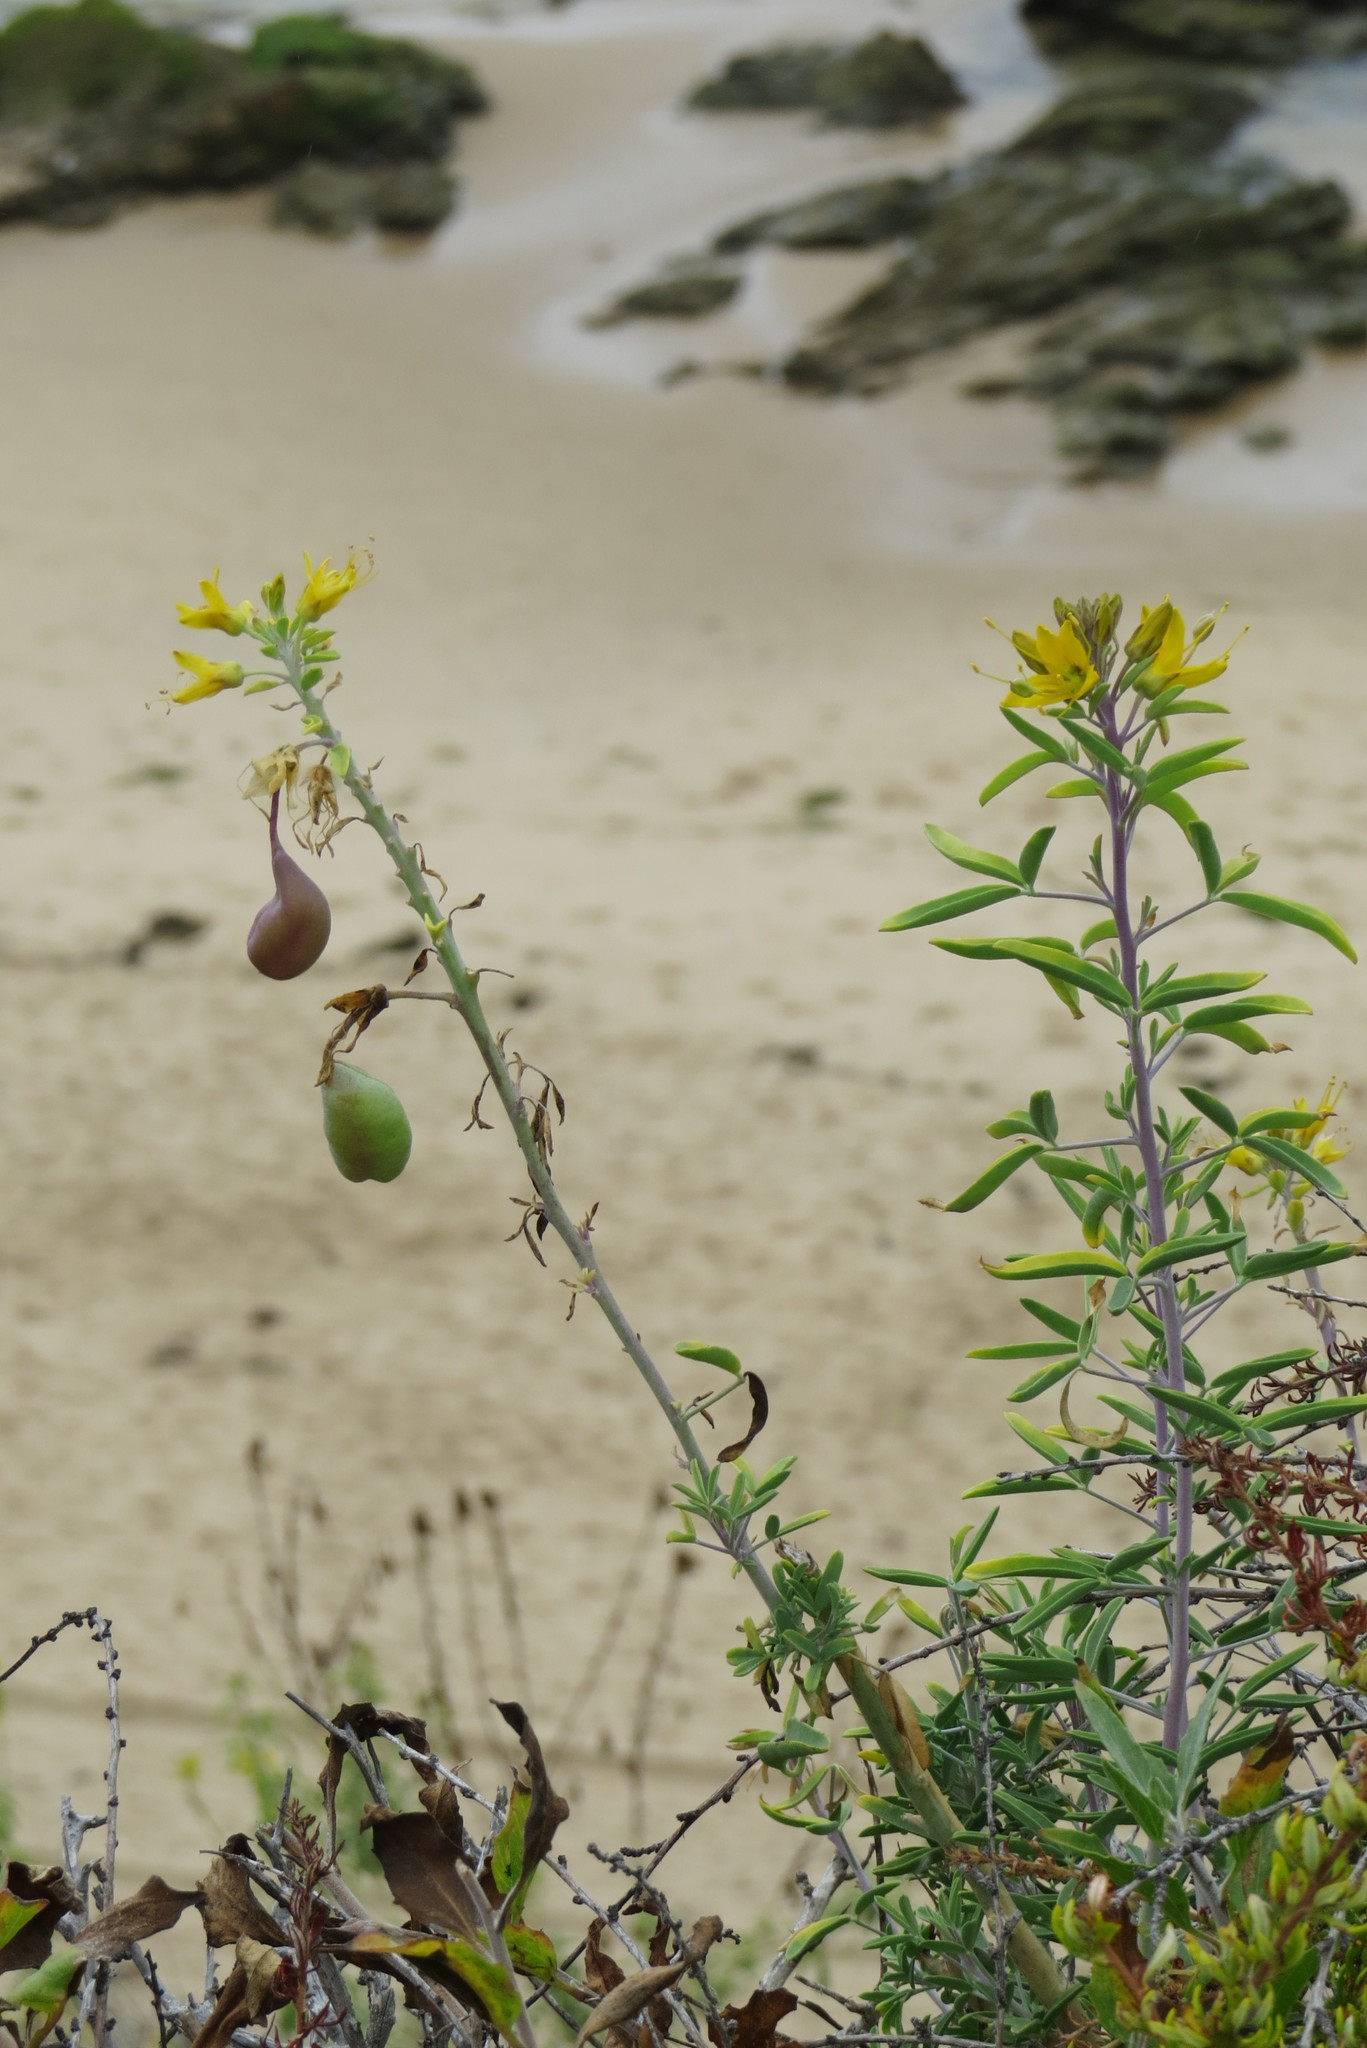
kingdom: Plantae
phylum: Tracheophyta
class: Magnoliopsida
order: Brassicales
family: Cleomaceae
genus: Cleomella
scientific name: Cleomella arborea
